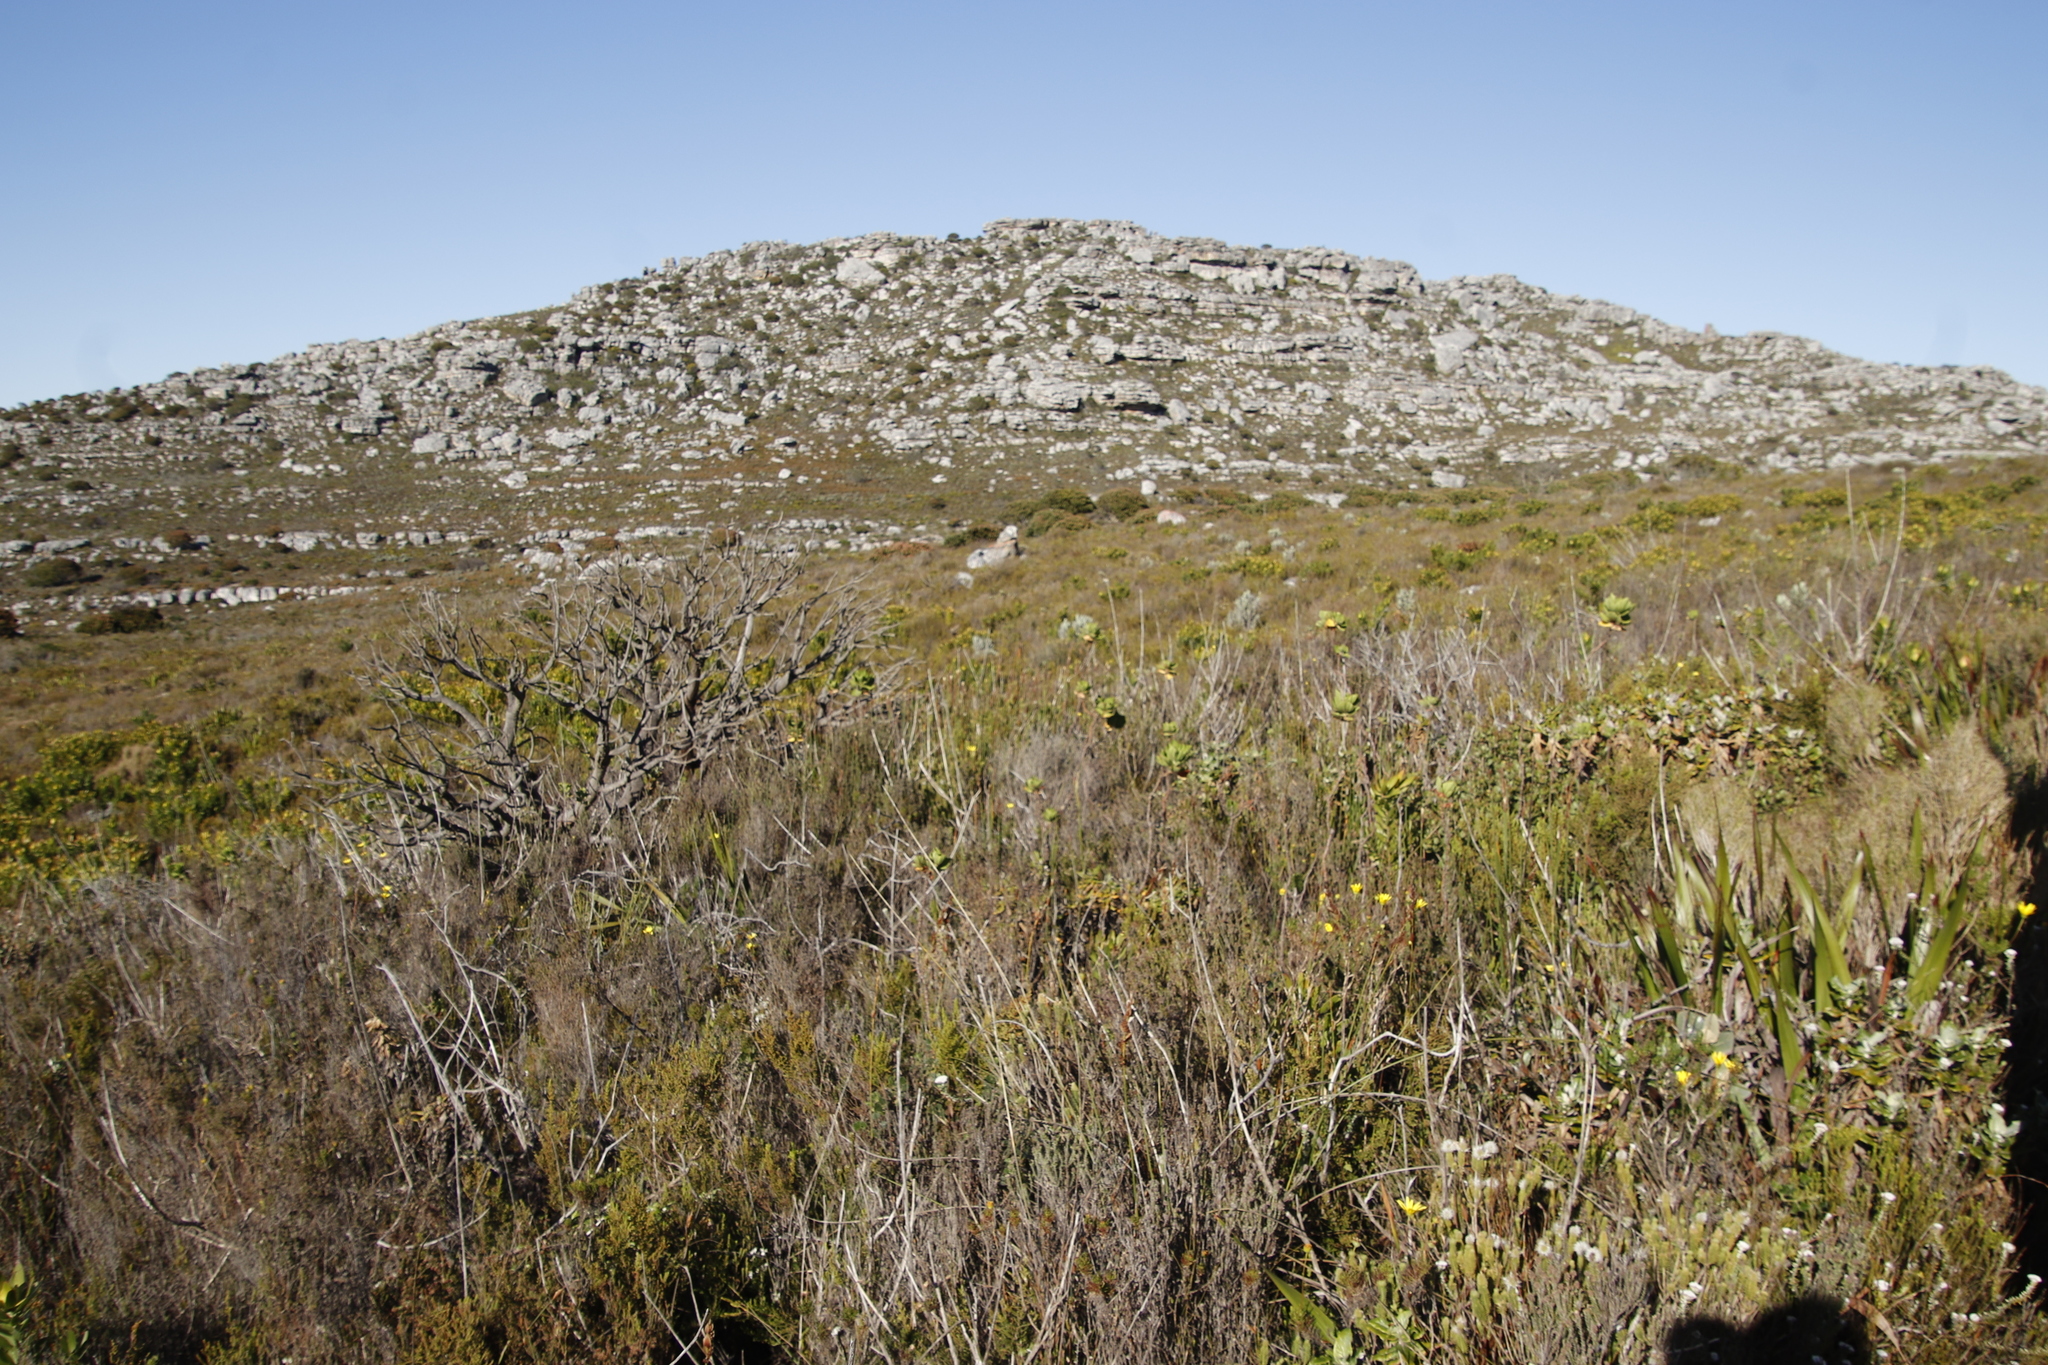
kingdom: Plantae
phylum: Tracheophyta
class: Magnoliopsida
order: Geraniales
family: Geraniaceae
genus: Pelargonium
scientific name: Pelargonium cucullatum
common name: Tree pelargonium
